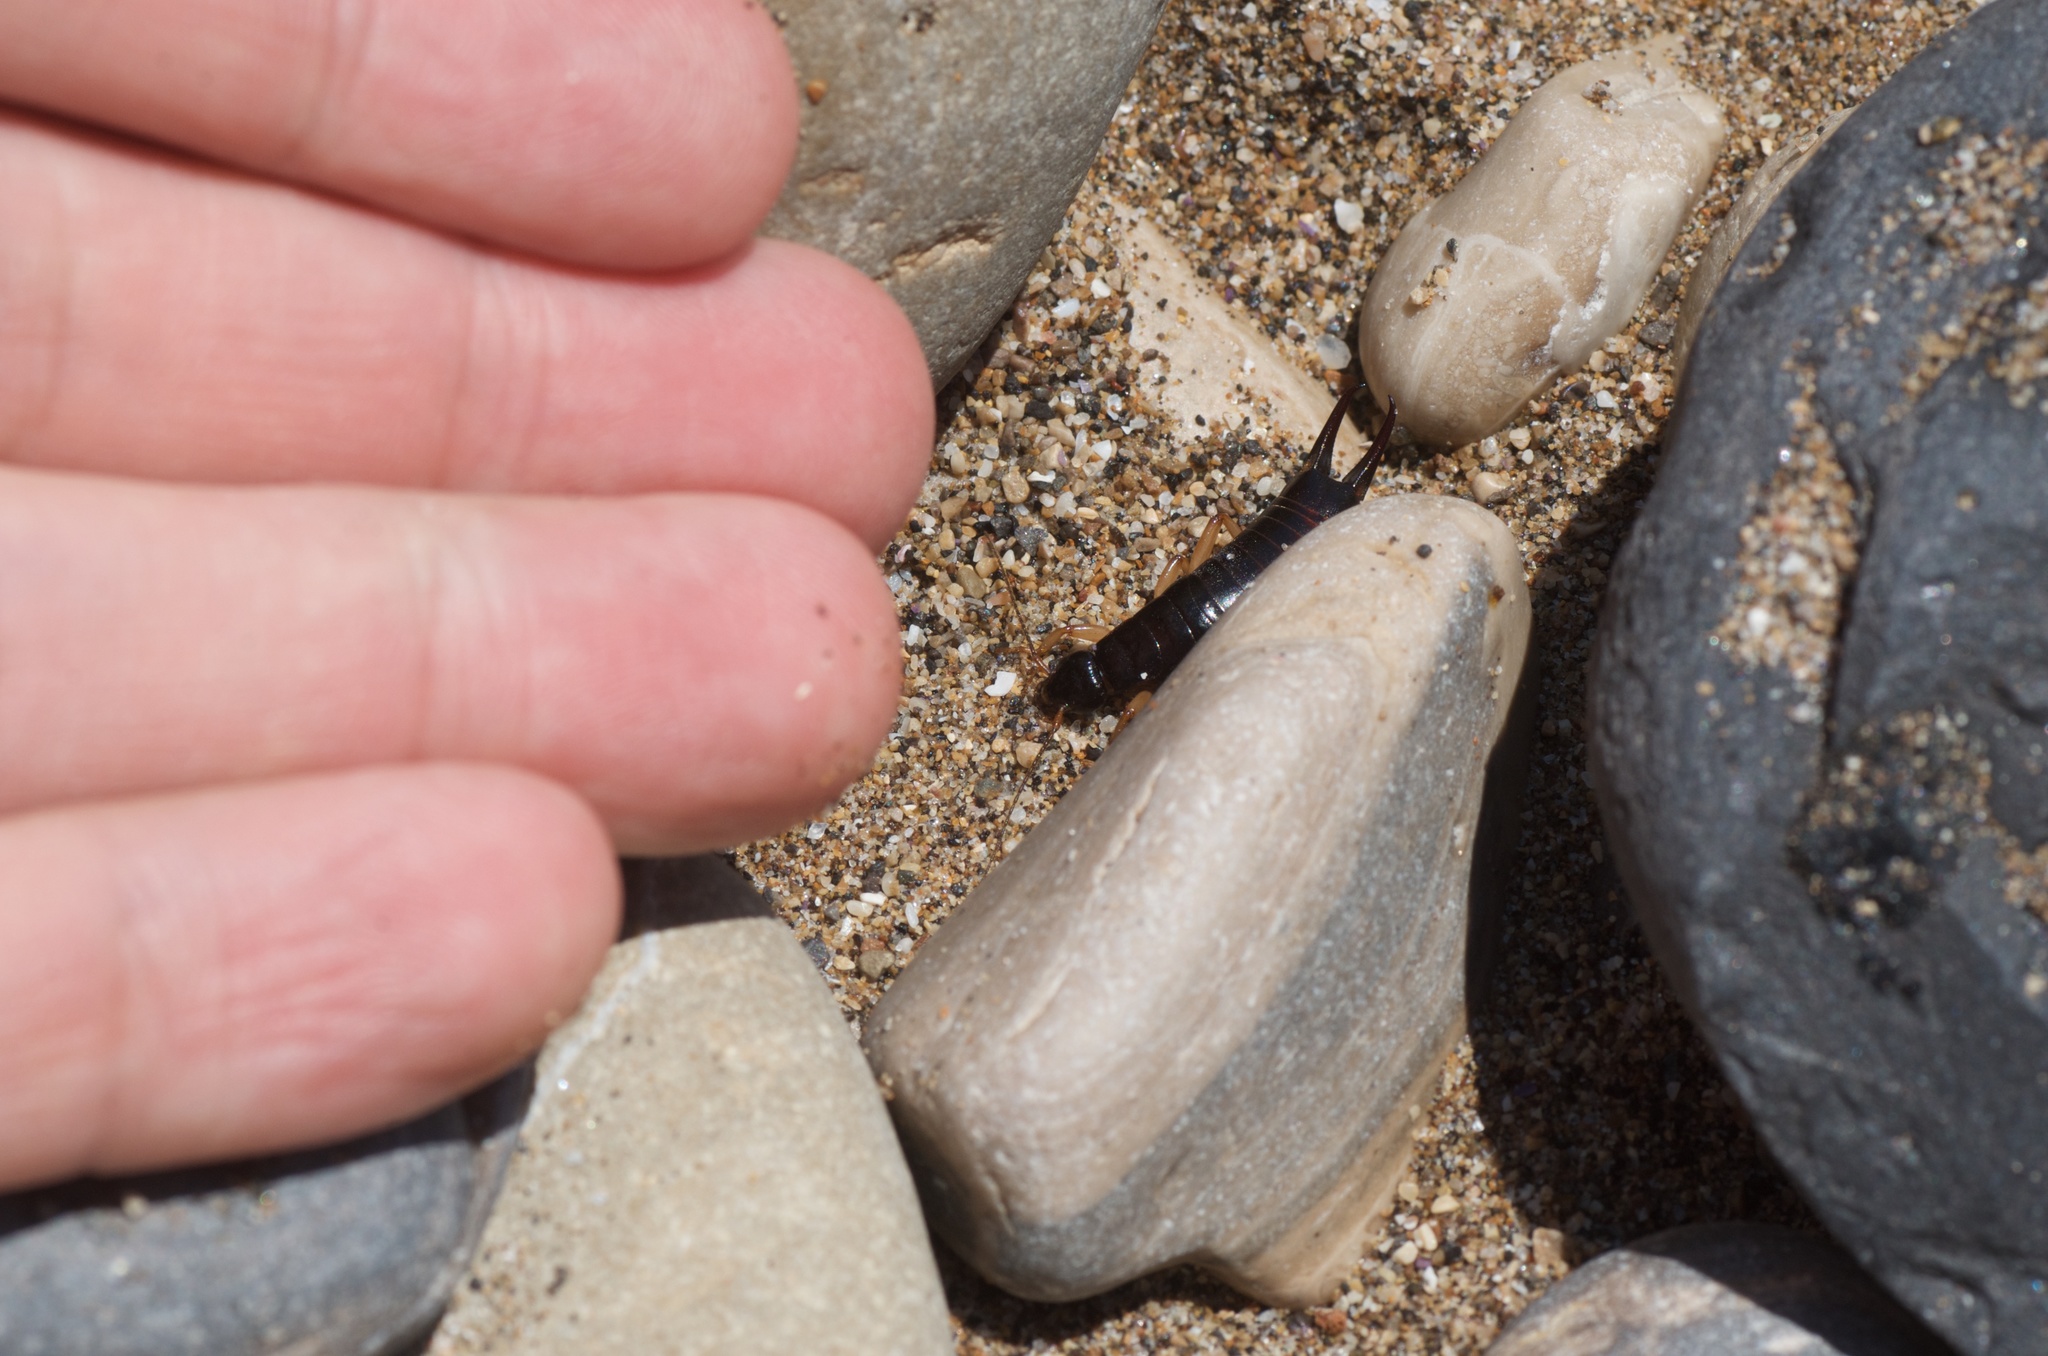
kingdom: Animalia
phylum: Arthropoda
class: Insecta
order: Dermaptera
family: Anisolabididae
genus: Anisolabis
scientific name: Anisolabis maritima
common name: Maritime earwig
